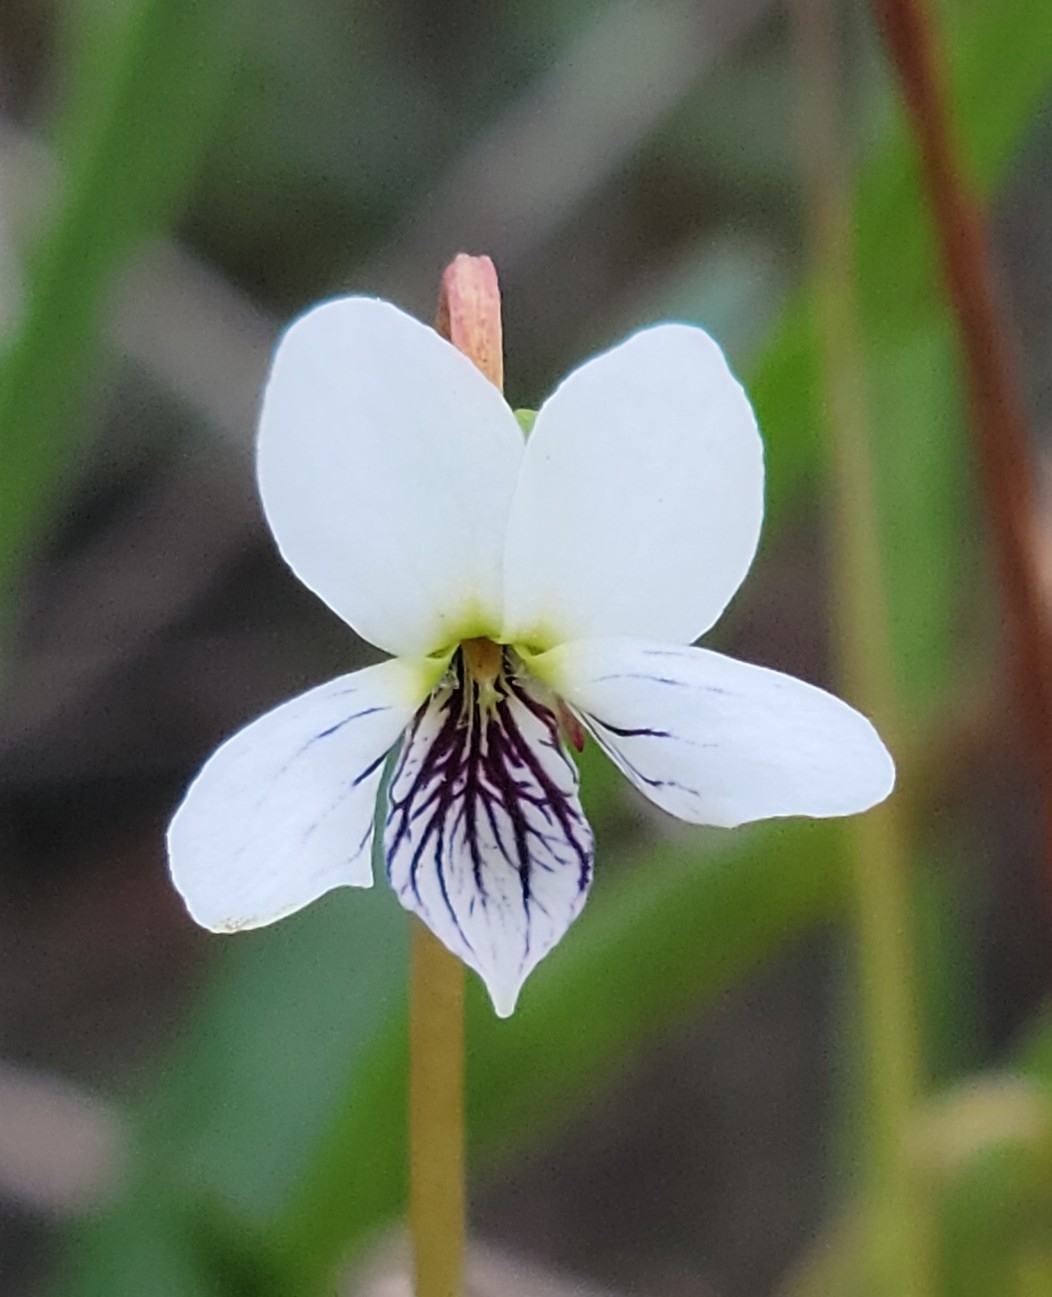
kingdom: Plantae
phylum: Tracheophyta
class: Magnoliopsida
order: Malpighiales
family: Violaceae
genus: Viola
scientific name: Viola vittata
